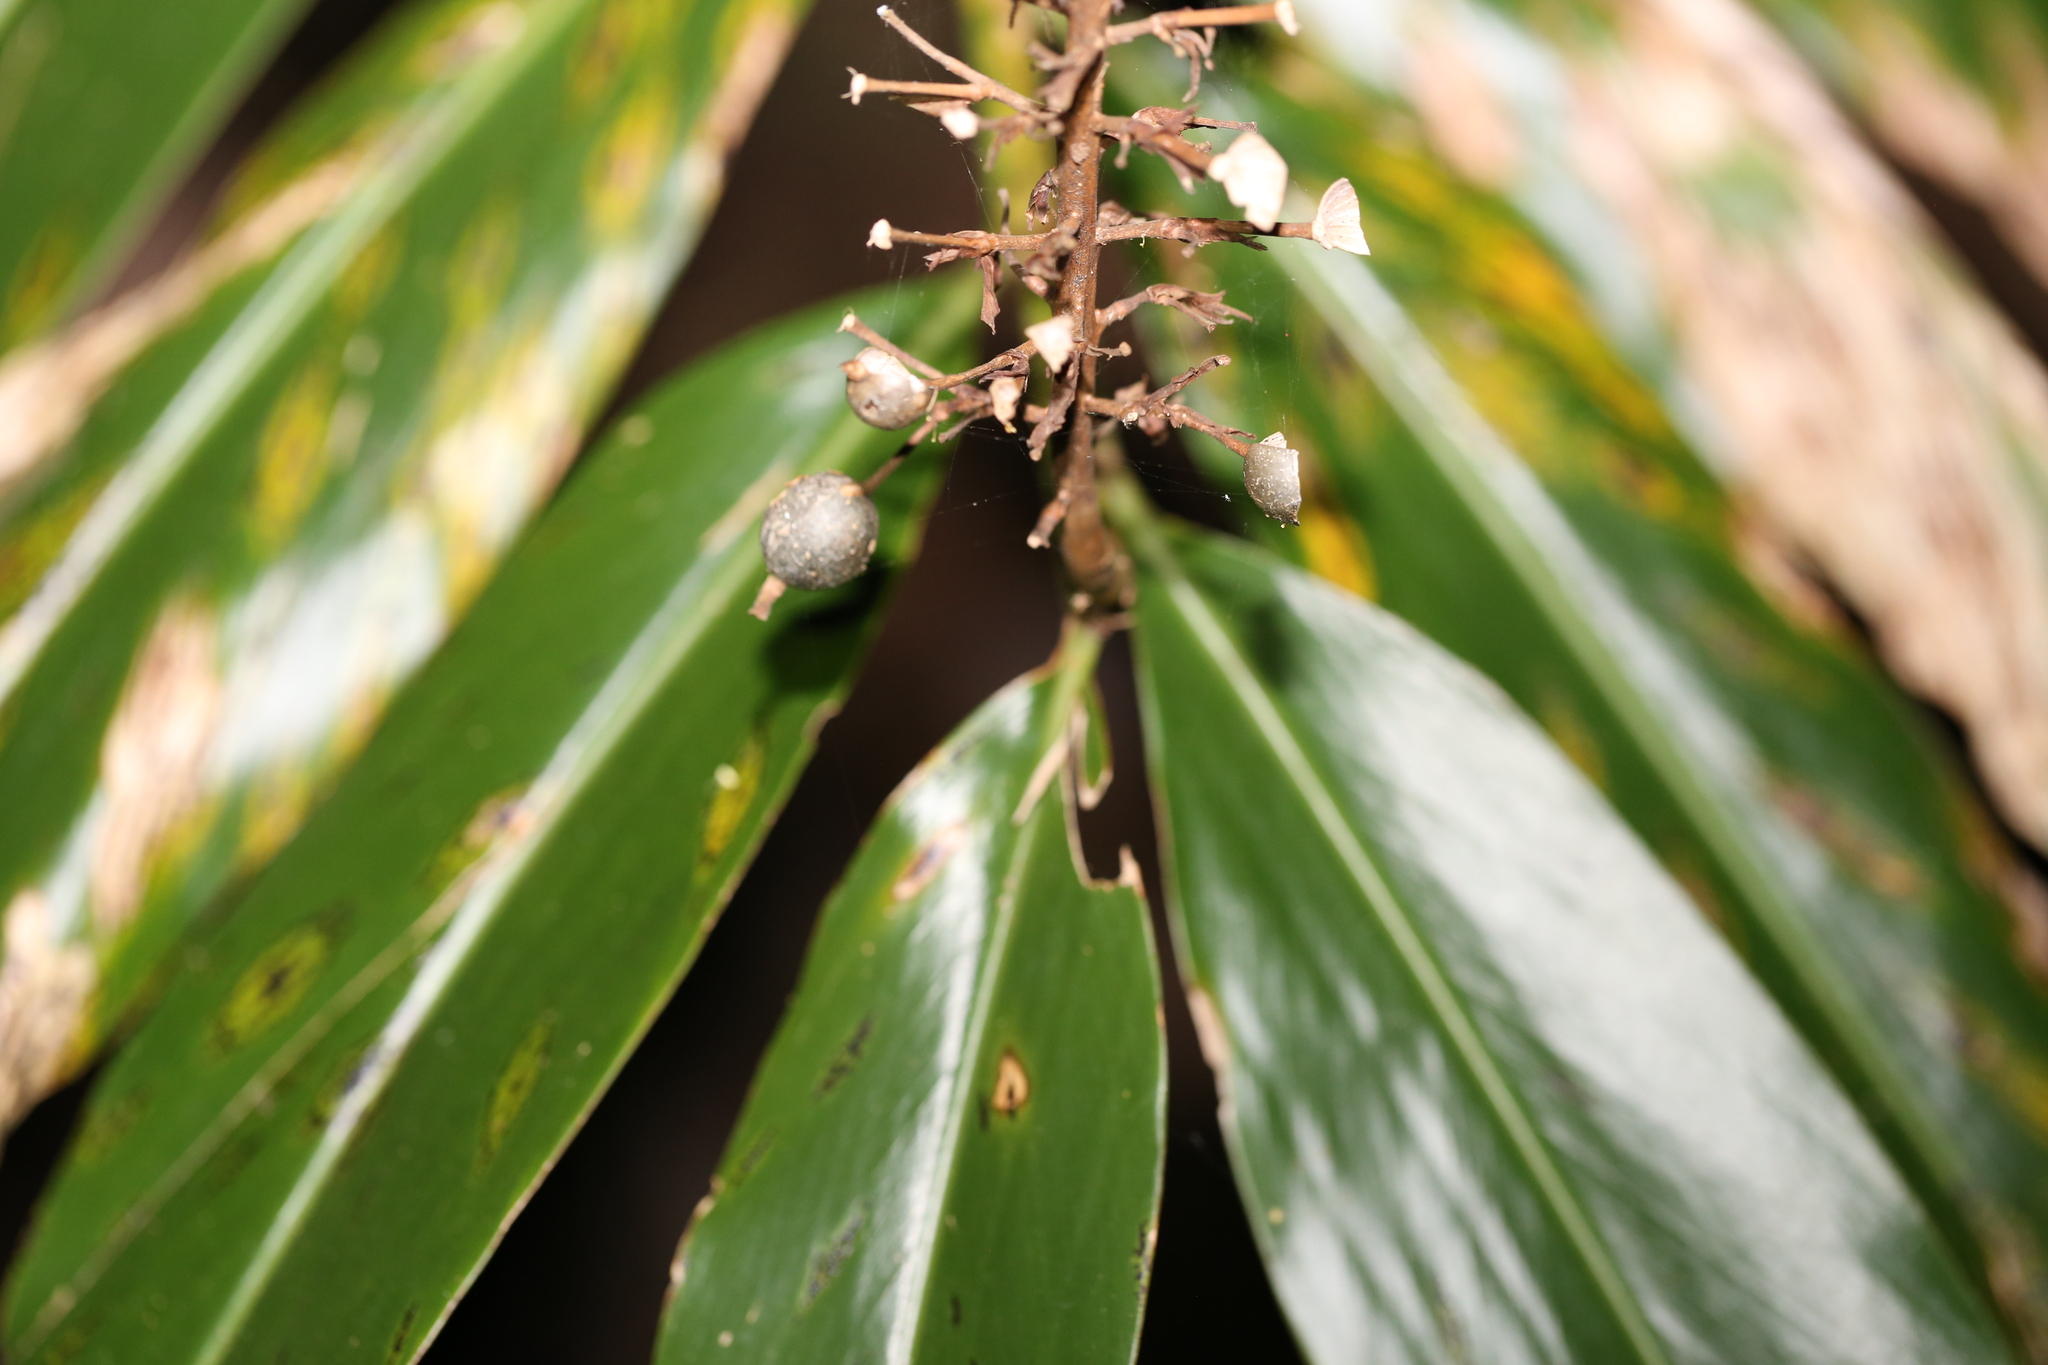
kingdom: Plantae
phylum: Tracheophyta
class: Liliopsida
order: Zingiberales
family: Zingiberaceae
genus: Alpinia
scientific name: Alpinia caerulea
